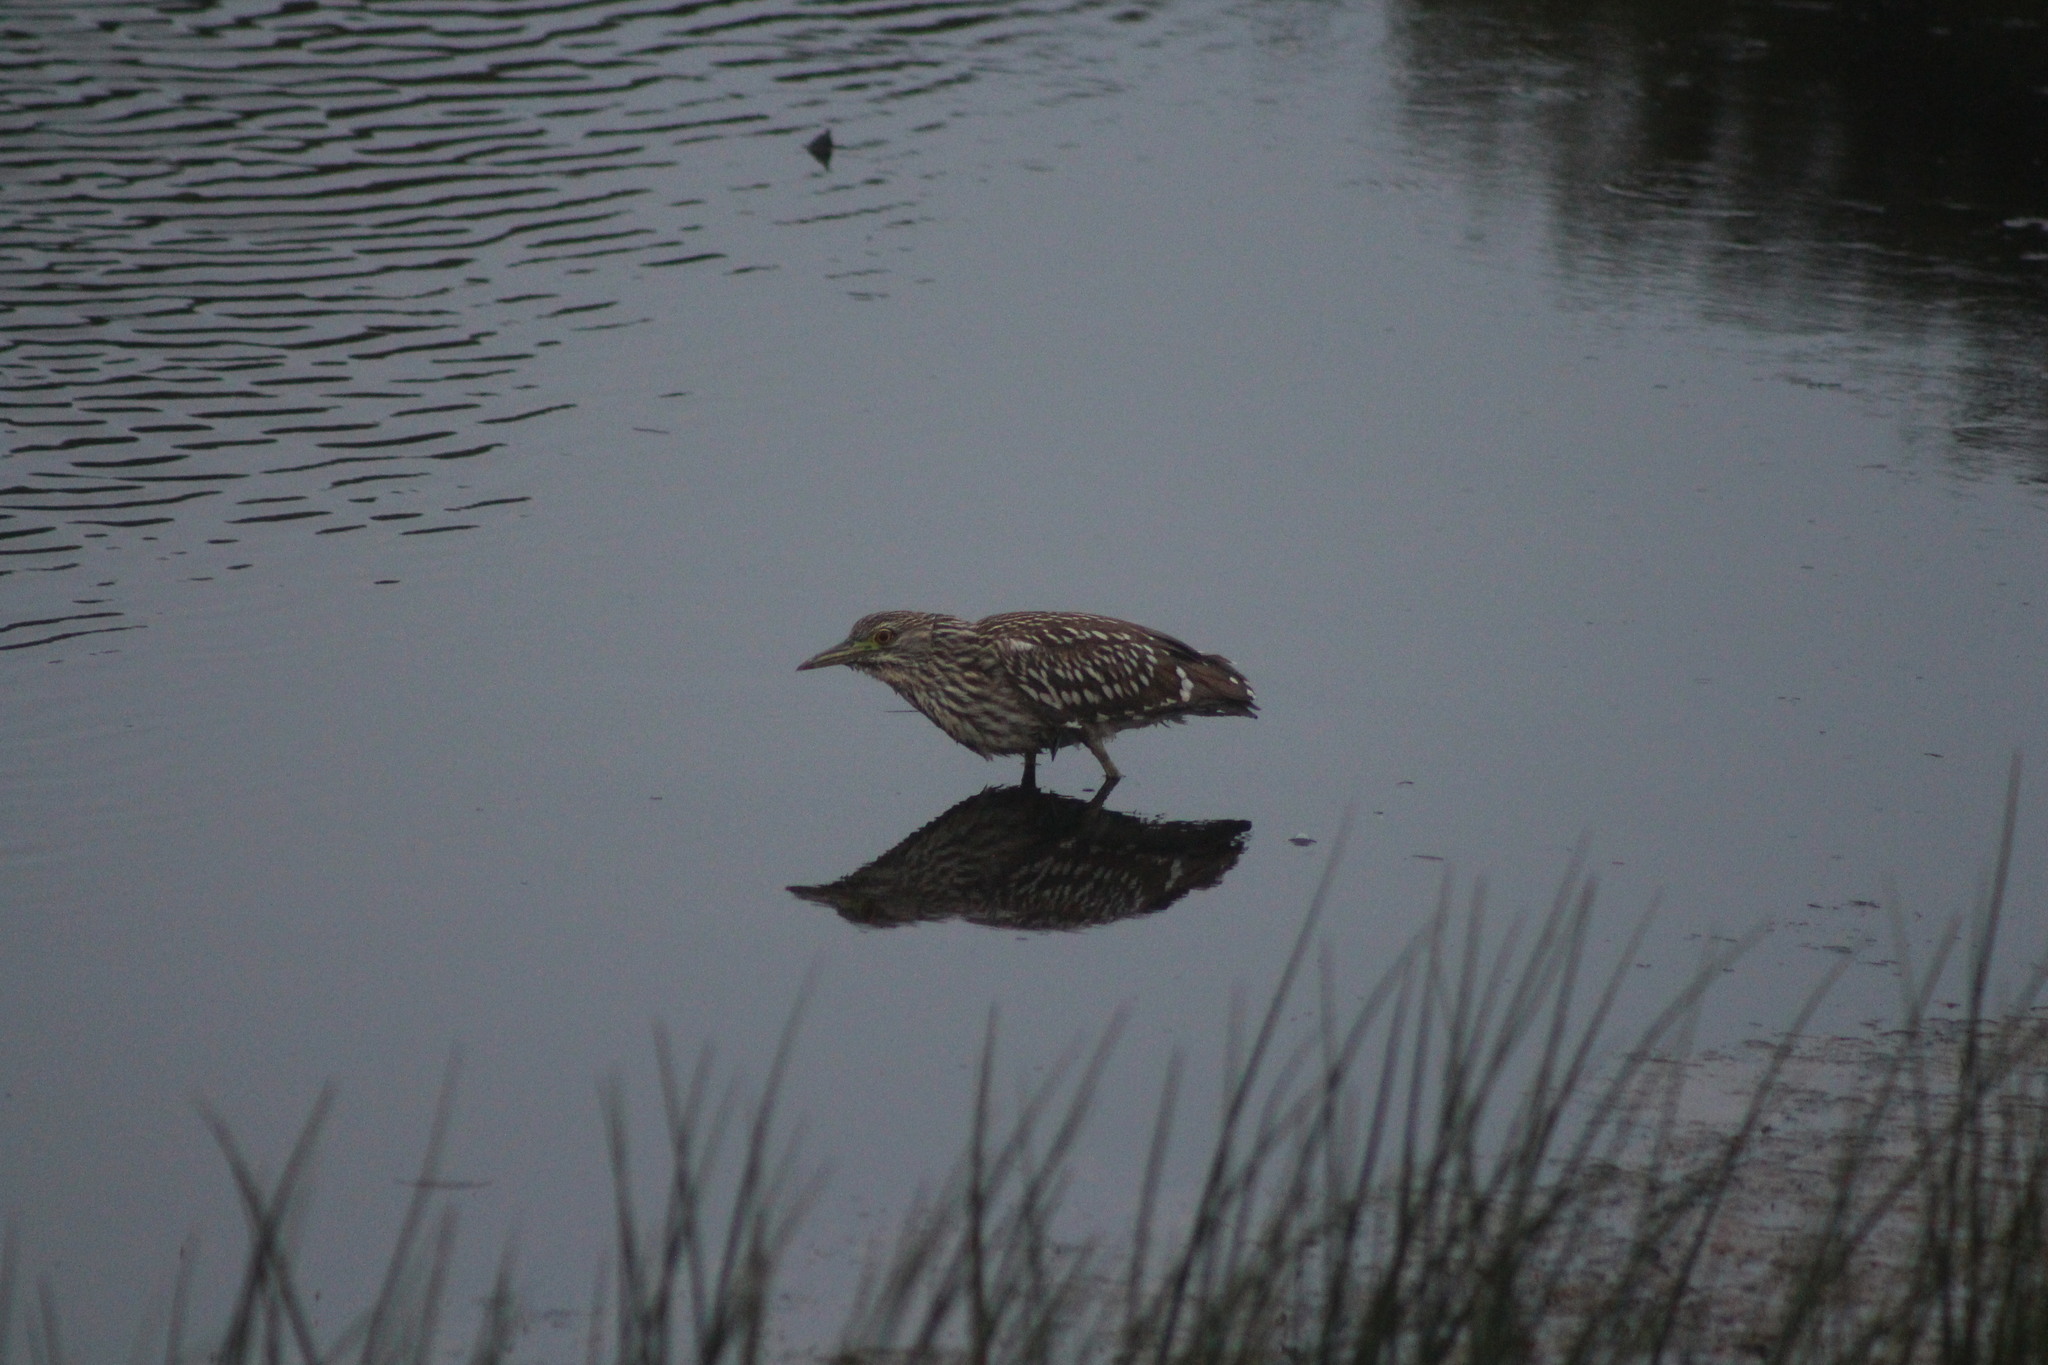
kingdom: Animalia
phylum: Chordata
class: Aves
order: Pelecaniformes
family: Ardeidae
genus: Nycticorax
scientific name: Nycticorax nycticorax
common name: Black-crowned night heron
